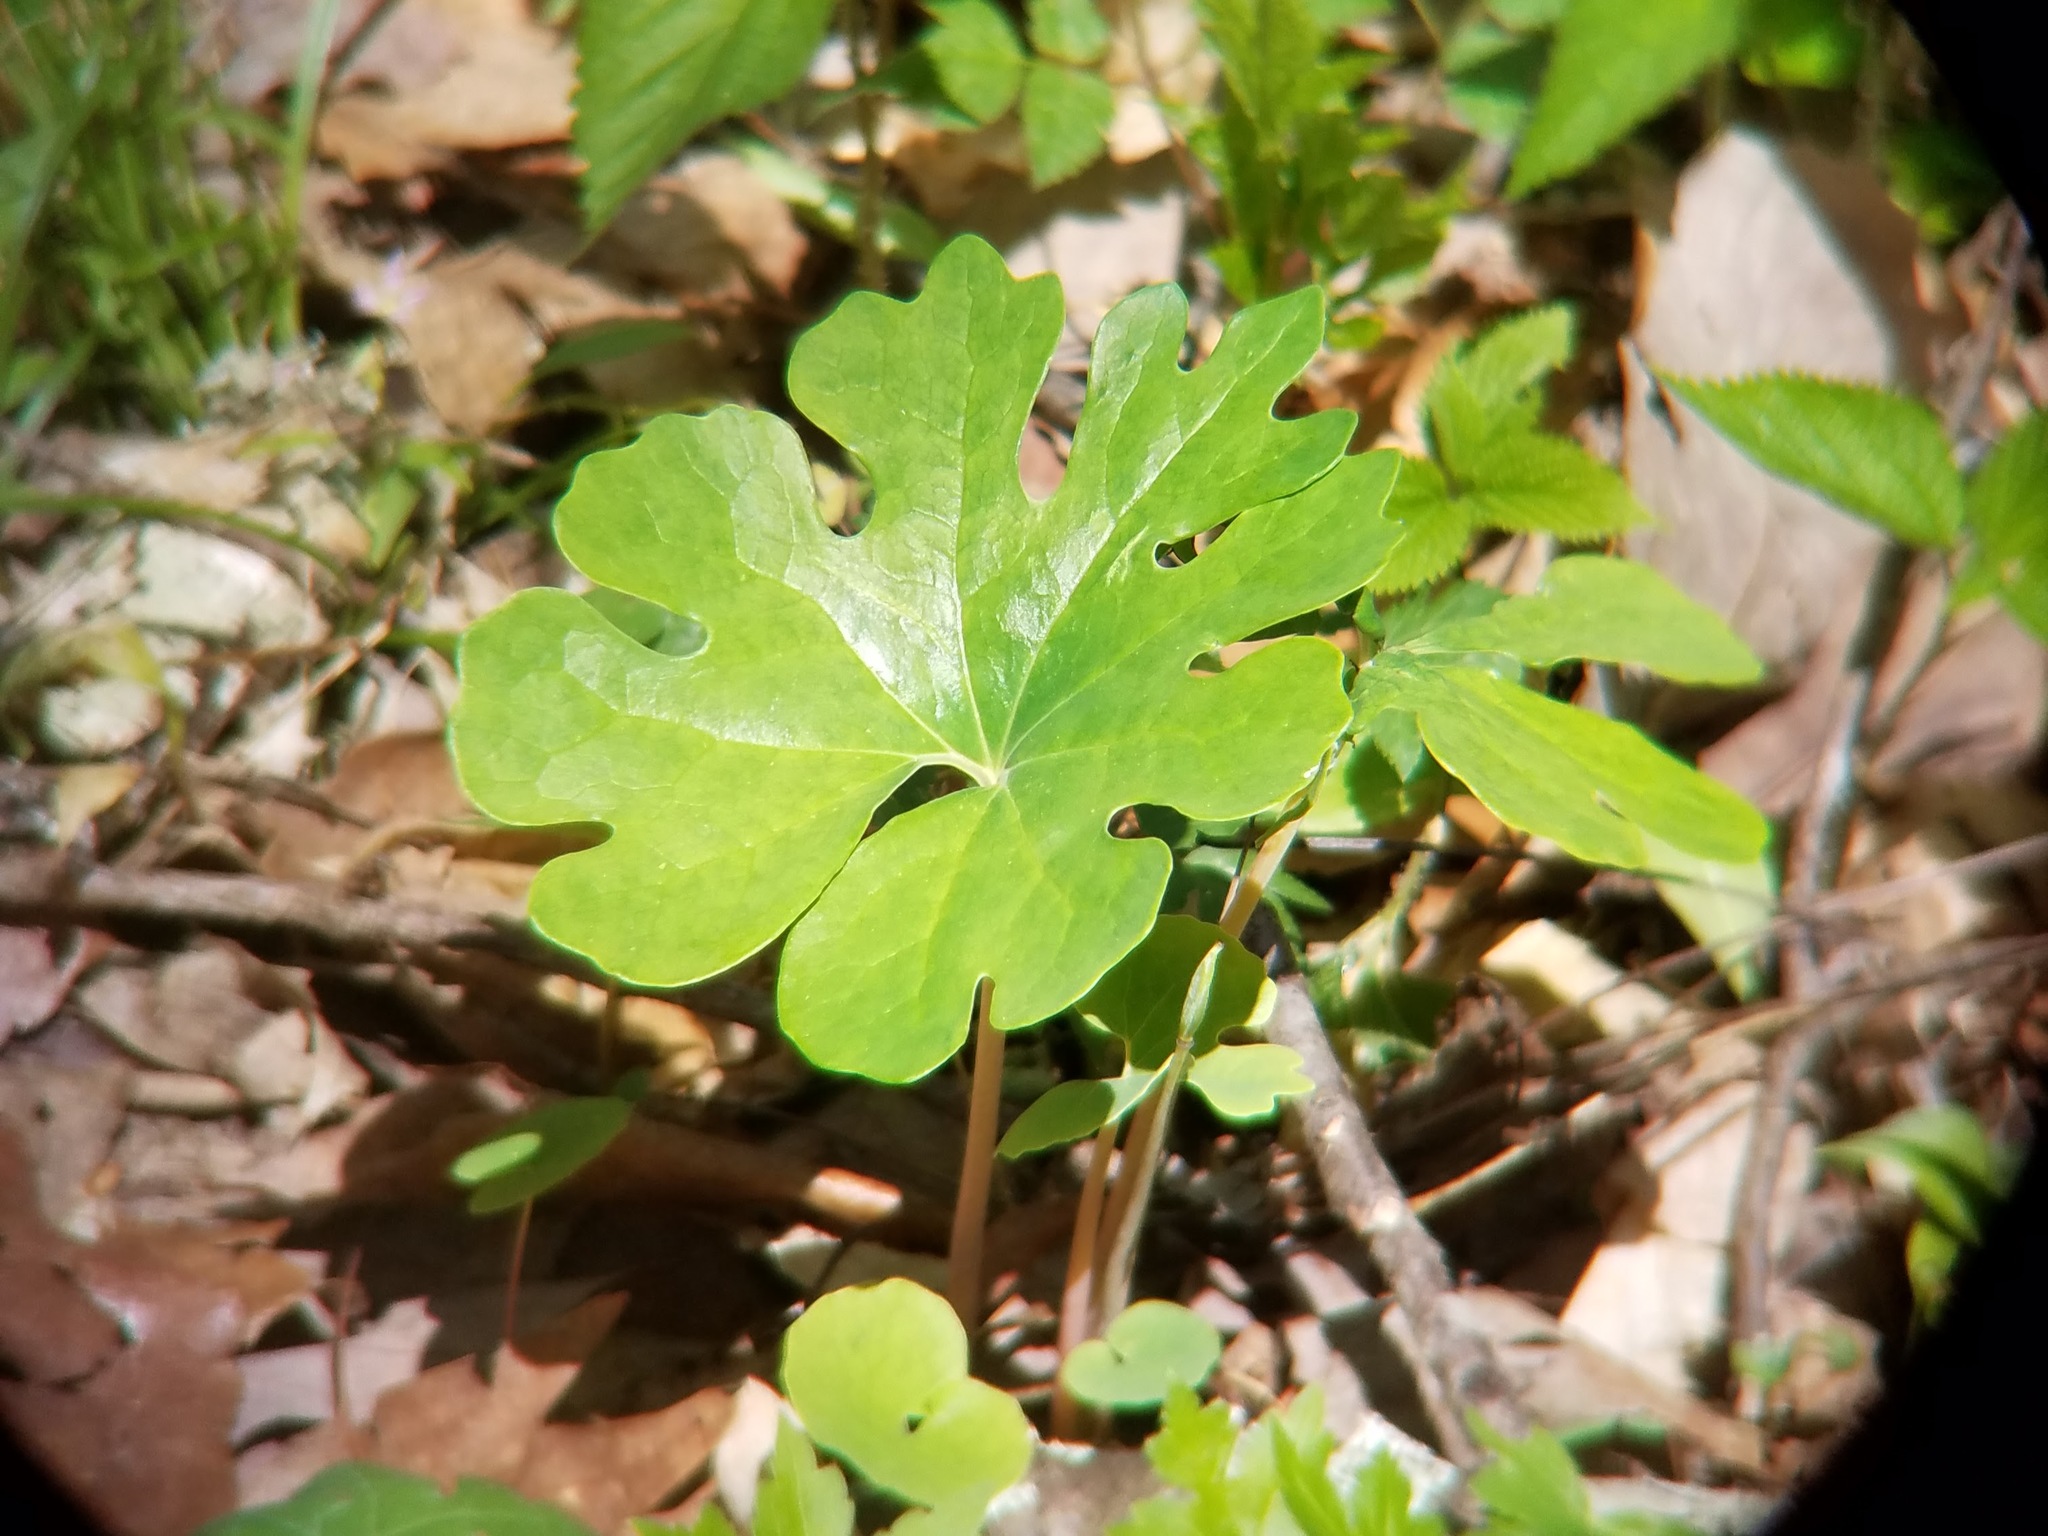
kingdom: Plantae
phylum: Tracheophyta
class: Magnoliopsida
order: Ranunculales
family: Papaveraceae
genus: Sanguinaria
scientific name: Sanguinaria canadensis
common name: Bloodroot
